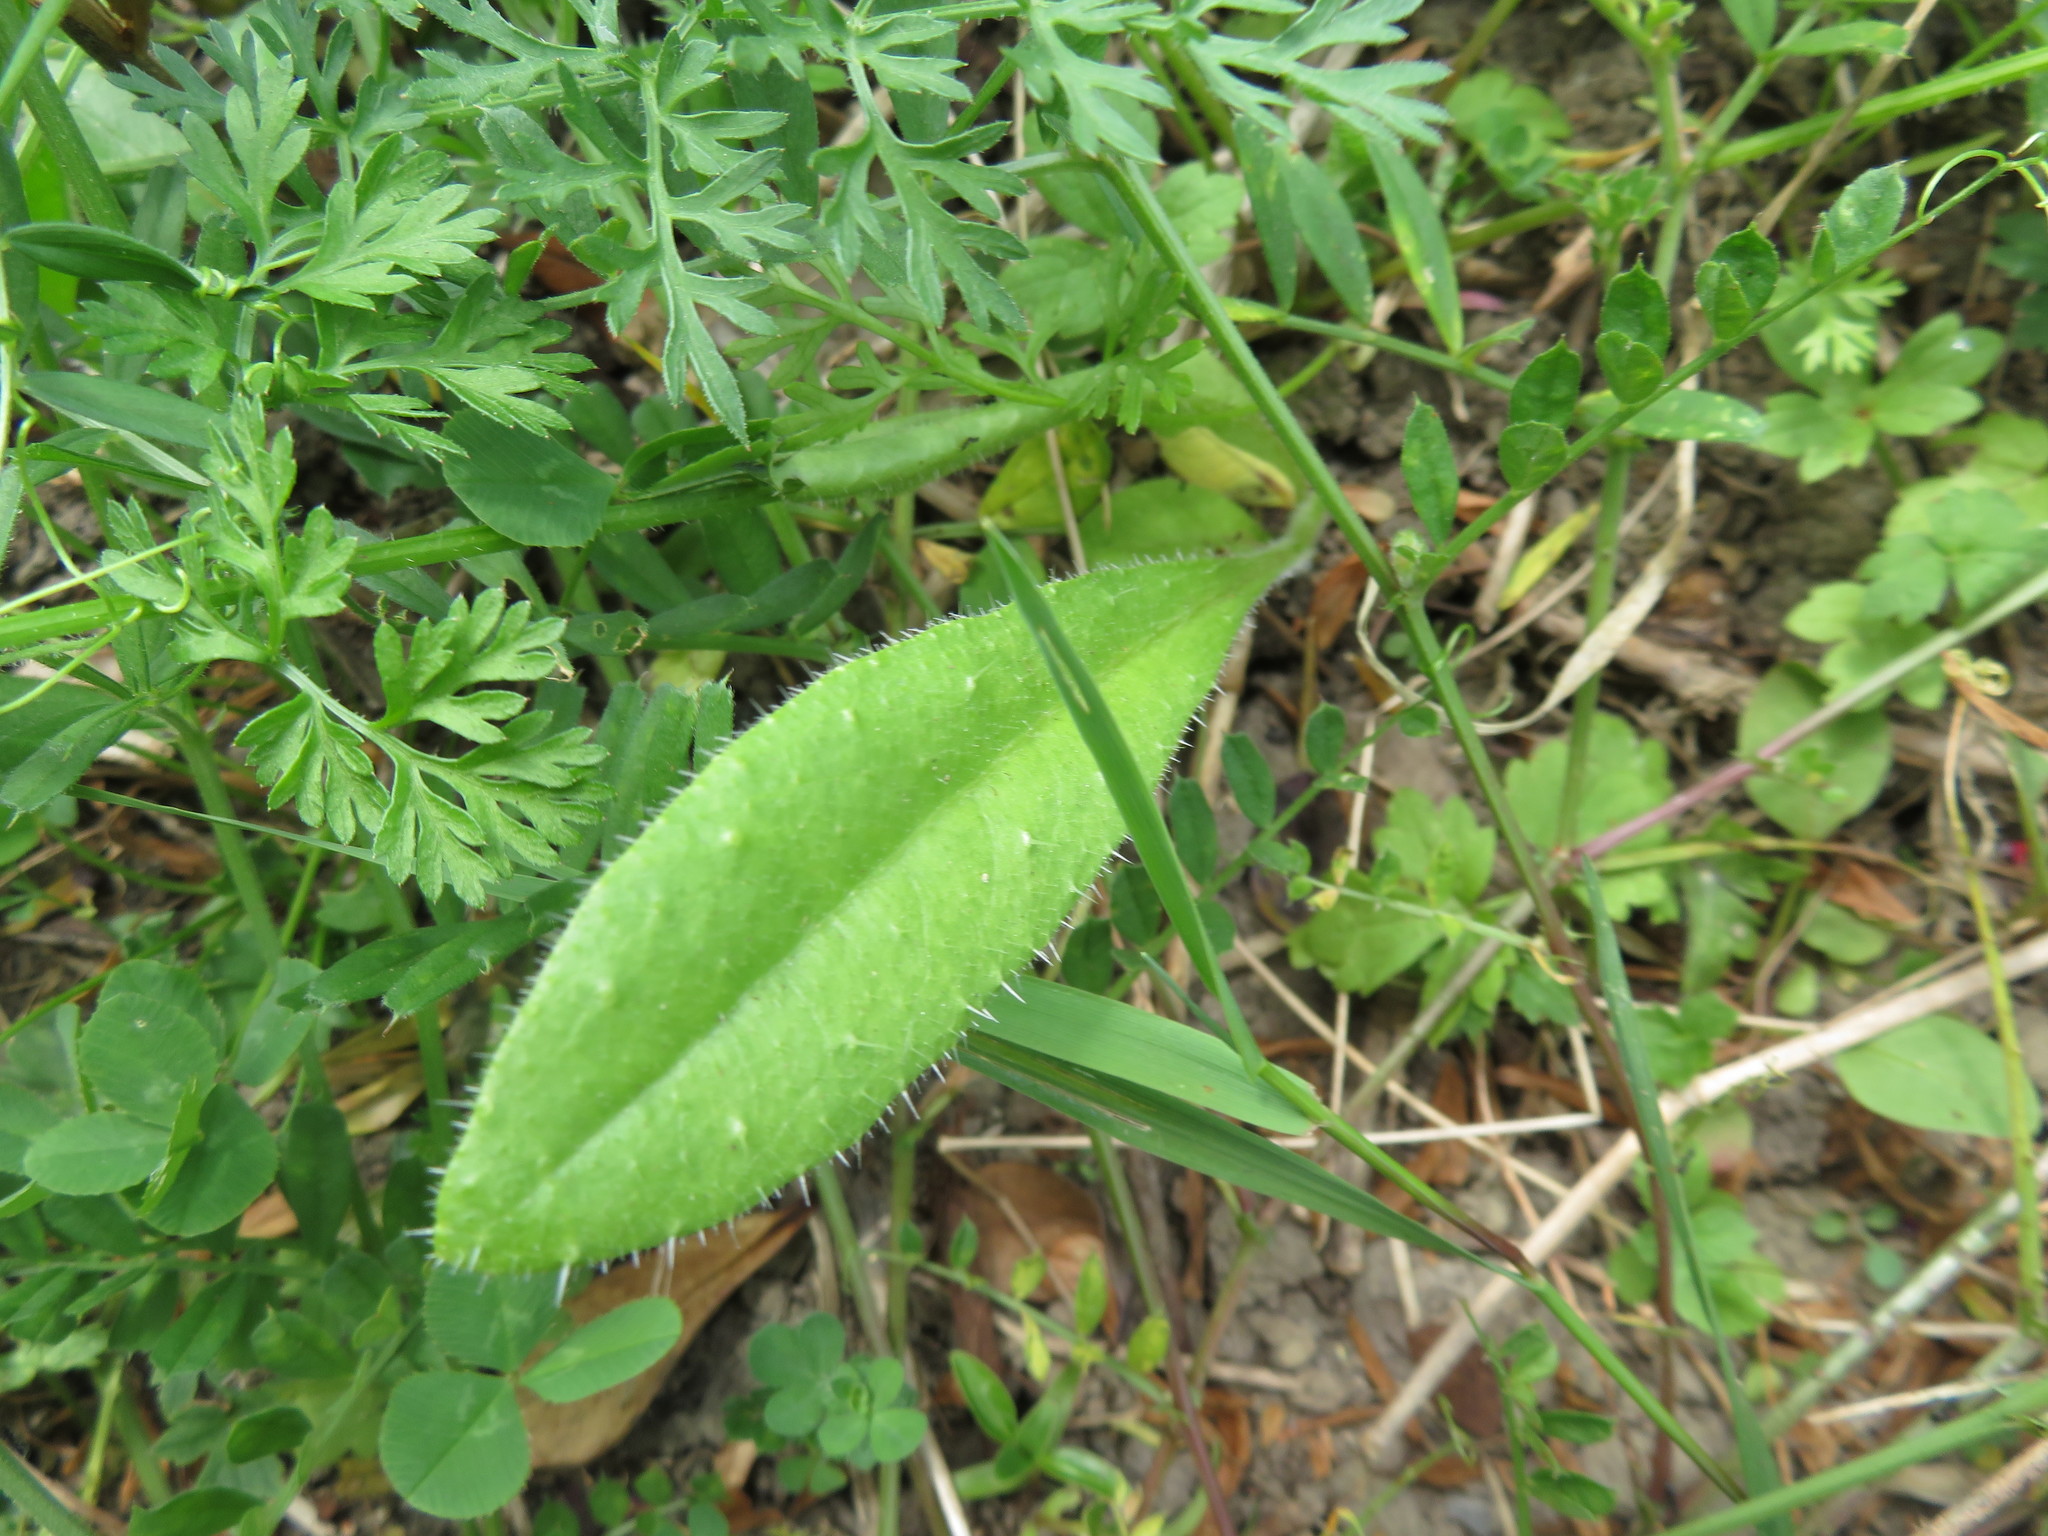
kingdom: Plantae
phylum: Tracheophyta
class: Magnoliopsida
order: Asterales
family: Asteraceae
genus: Helminthotheca
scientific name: Helminthotheca echioides
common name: Ox-tongue
